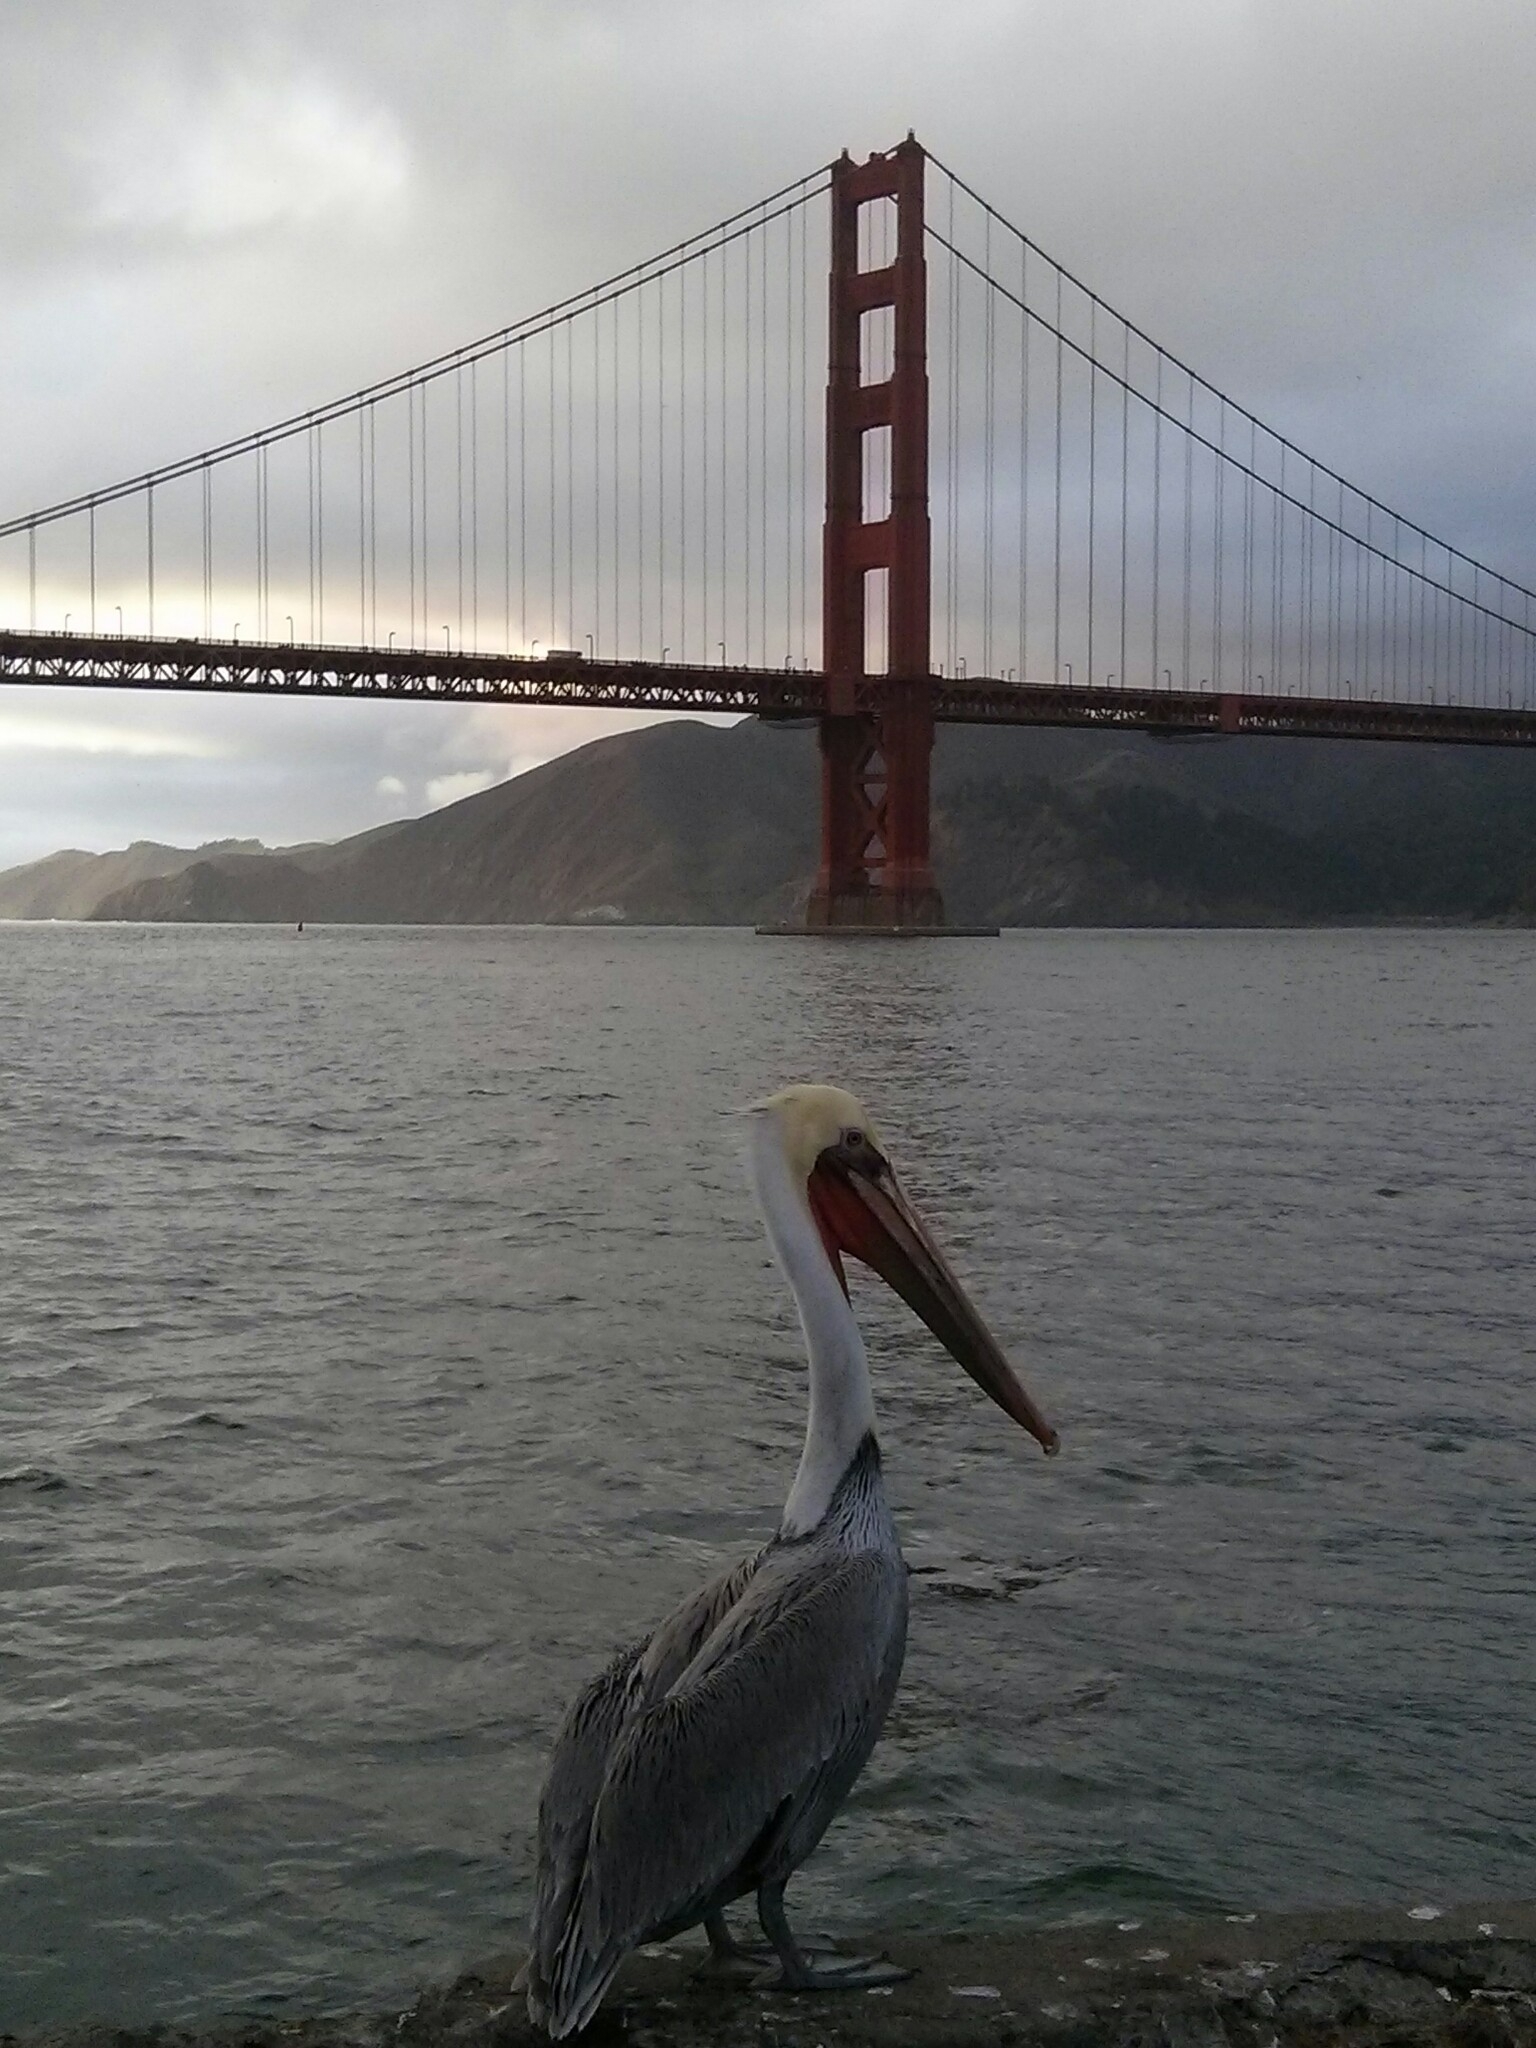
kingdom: Animalia
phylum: Chordata
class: Aves
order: Pelecaniformes
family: Pelecanidae
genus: Pelecanus
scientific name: Pelecanus occidentalis
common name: Brown pelican
